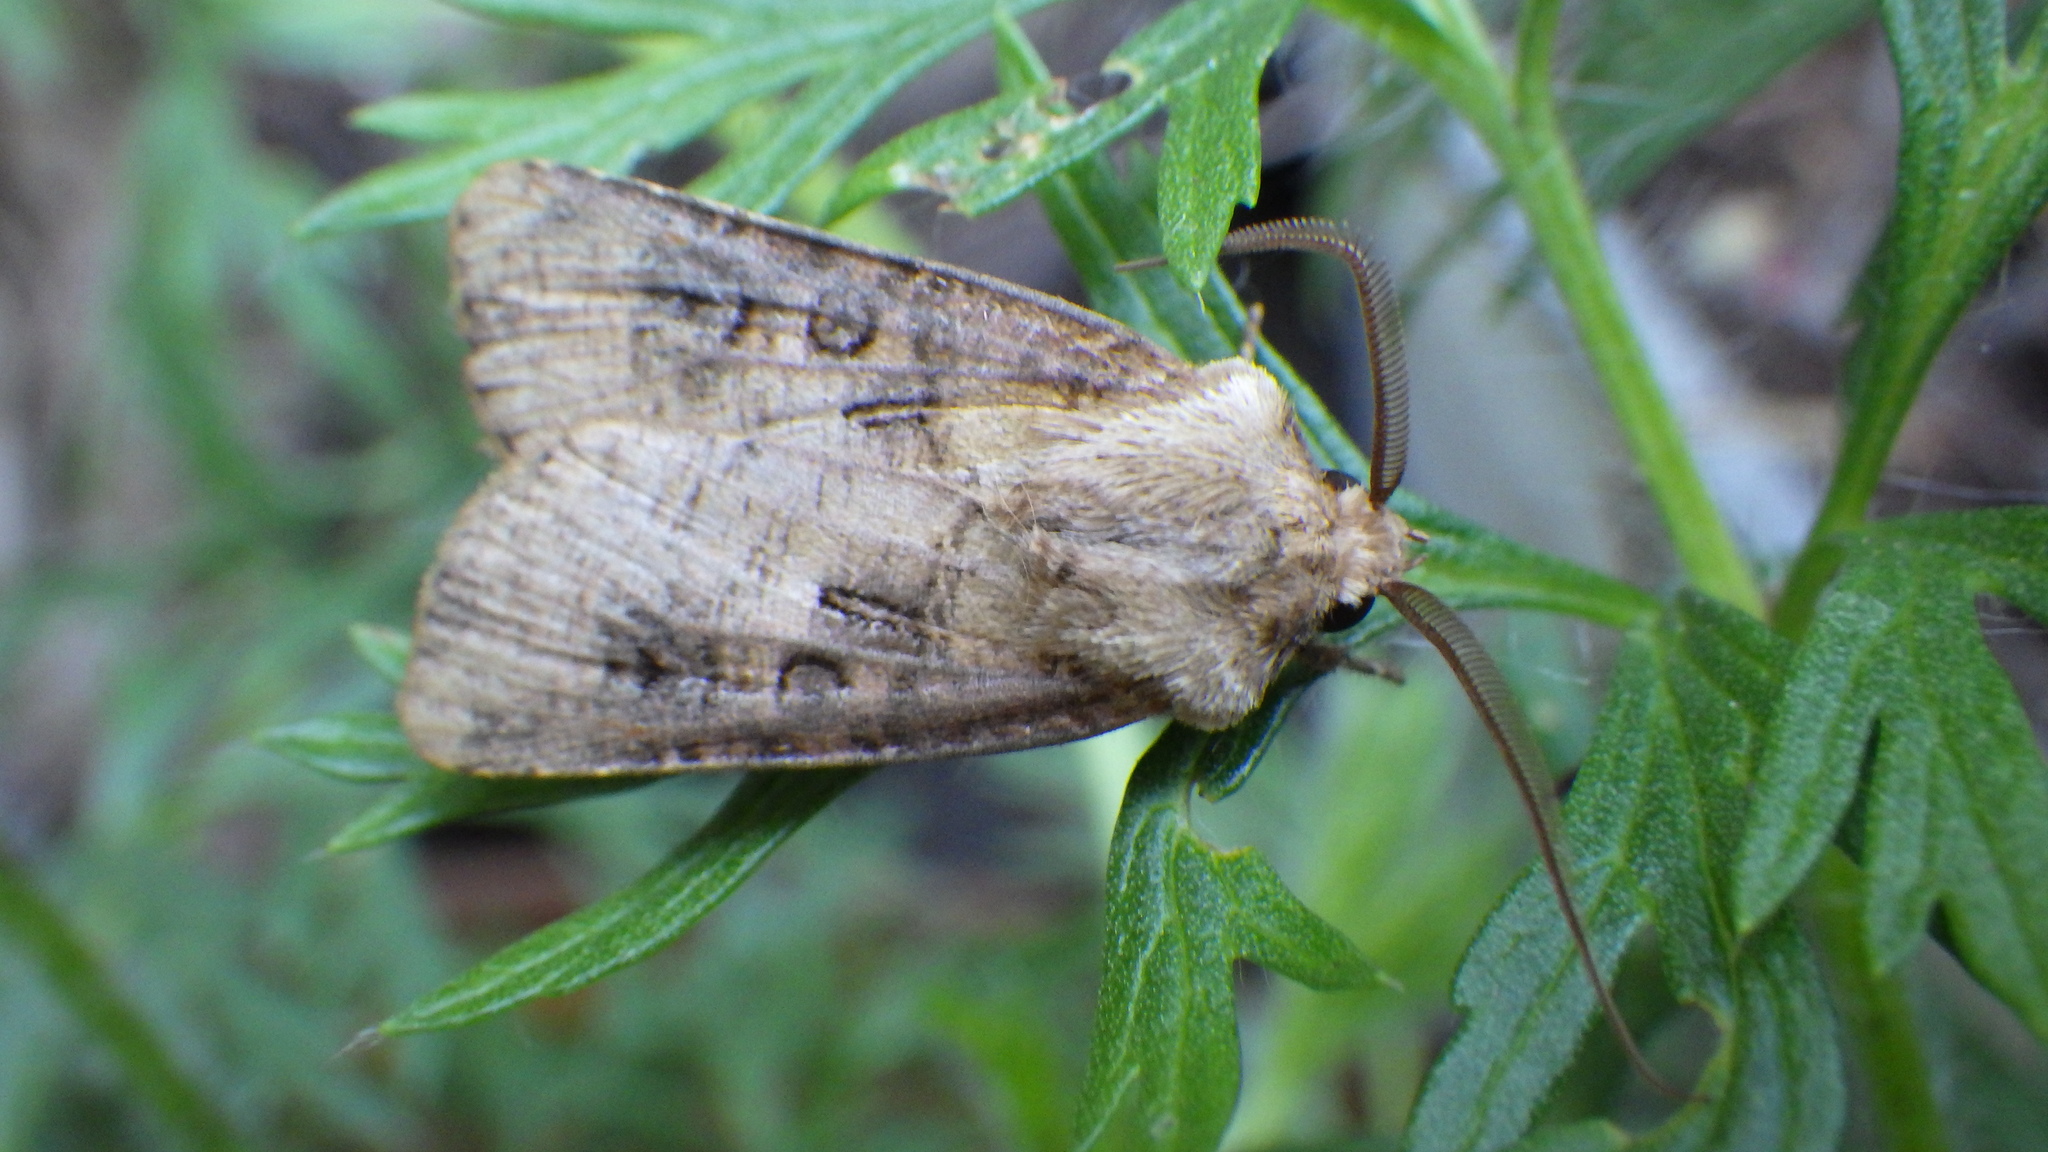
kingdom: Animalia
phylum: Arthropoda
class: Insecta
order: Lepidoptera
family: Noctuidae
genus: Agrotis
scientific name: Agrotis clavis
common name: Heart and club
